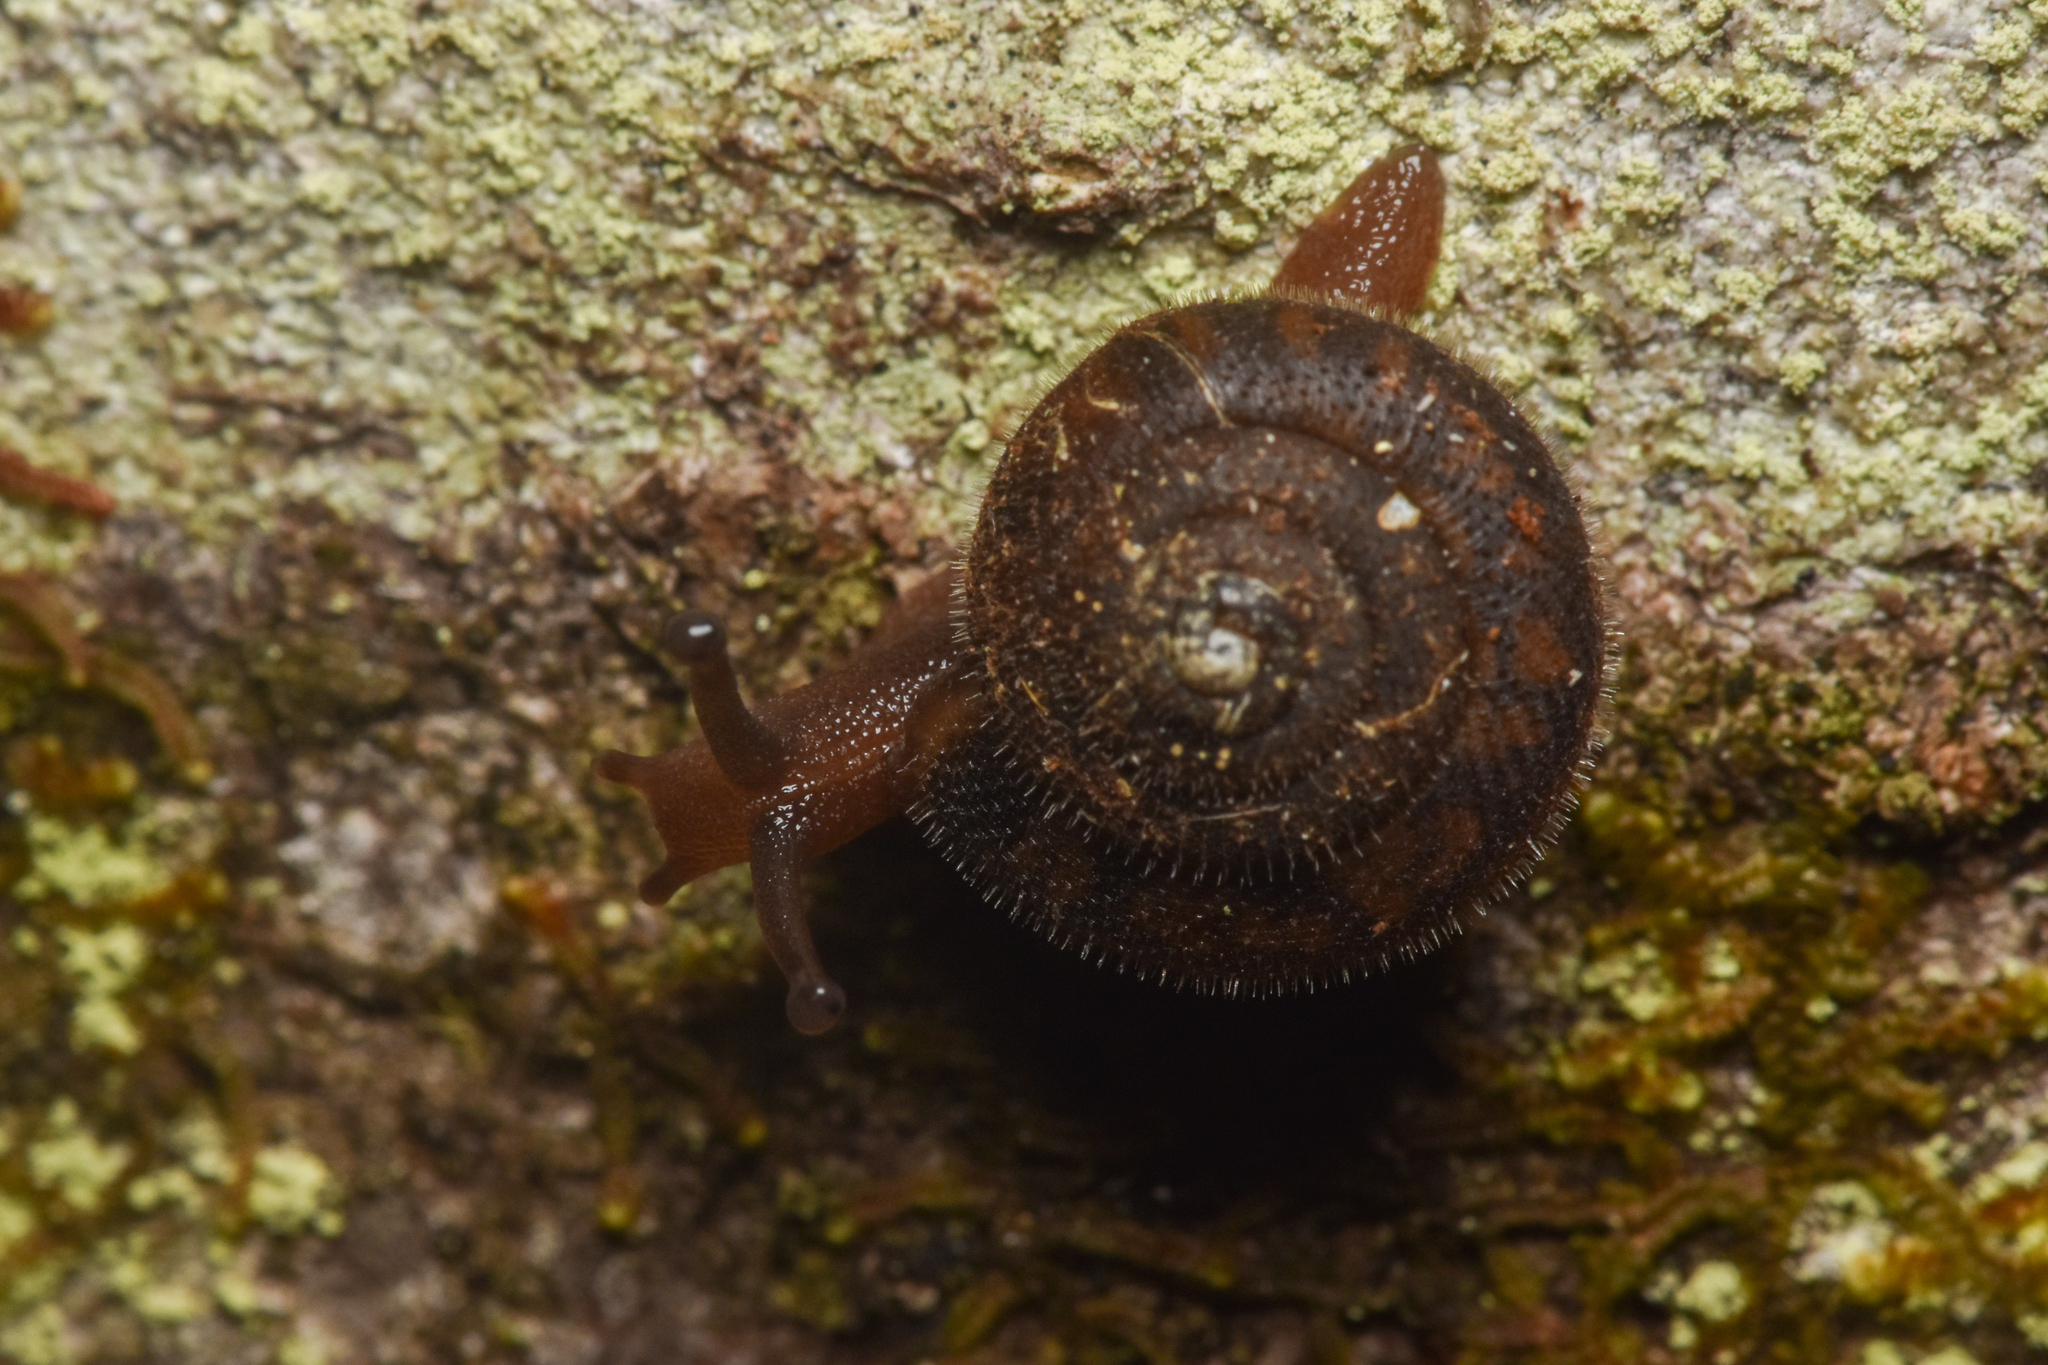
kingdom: Animalia
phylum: Mollusca
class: Gastropoda
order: Stylommatophora
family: Polygyridae
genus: Vespericola
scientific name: Vespericola columbianus
